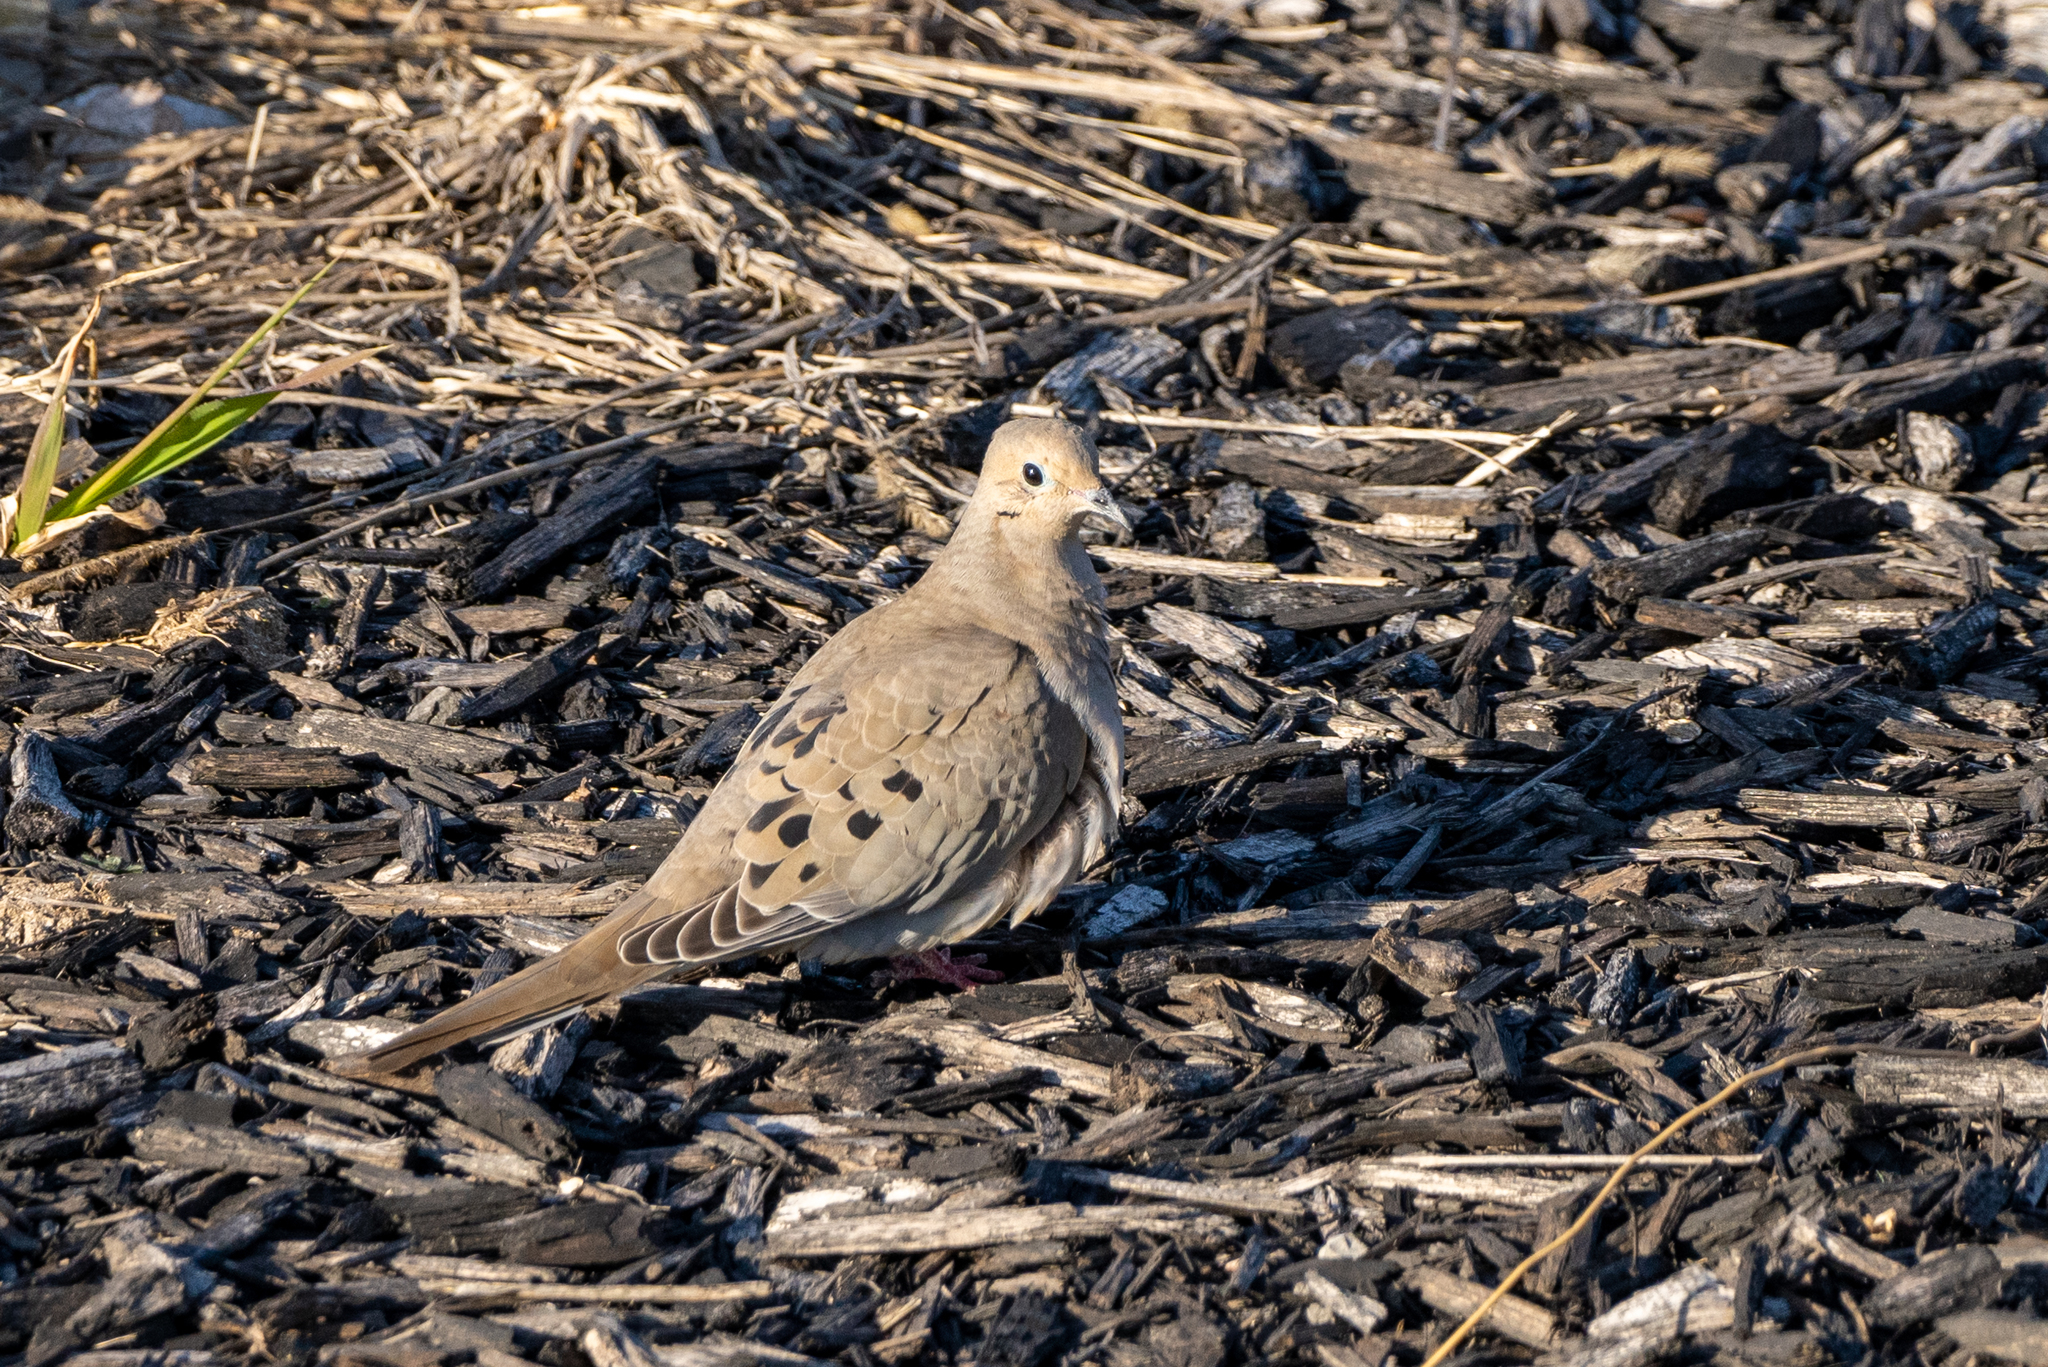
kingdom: Animalia
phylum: Chordata
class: Aves
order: Columbiformes
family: Columbidae
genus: Zenaida
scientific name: Zenaida macroura
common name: Mourning dove
